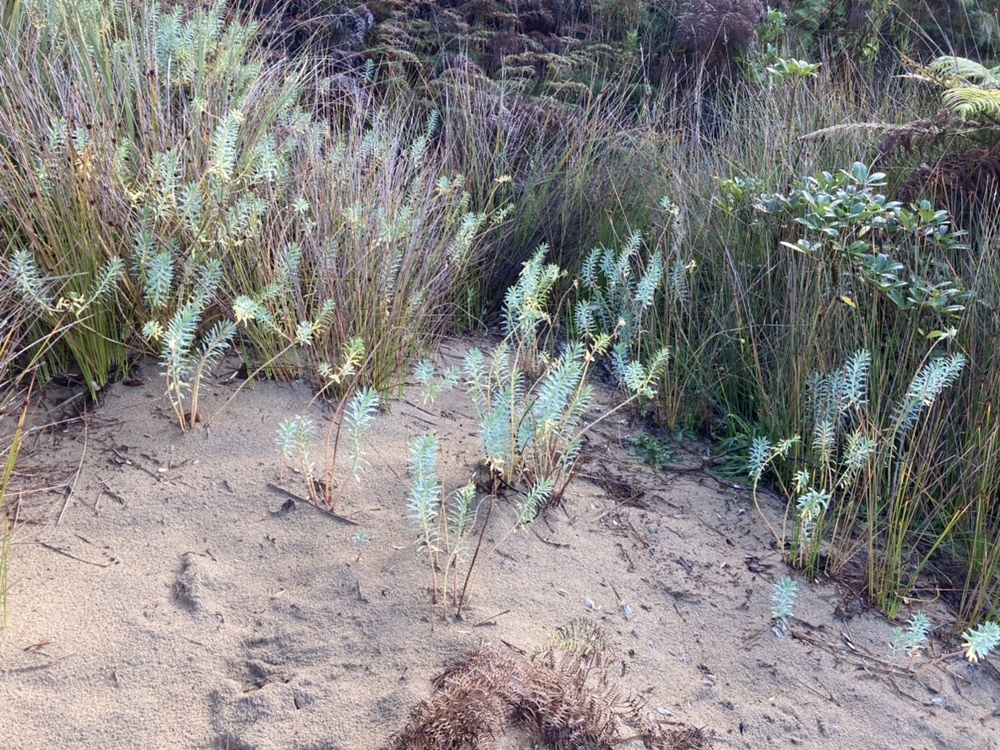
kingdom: Plantae
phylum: Tracheophyta
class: Magnoliopsida
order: Malpighiales
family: Euphorbiaceae
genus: Euphorbia
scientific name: Euphorbia glauca
